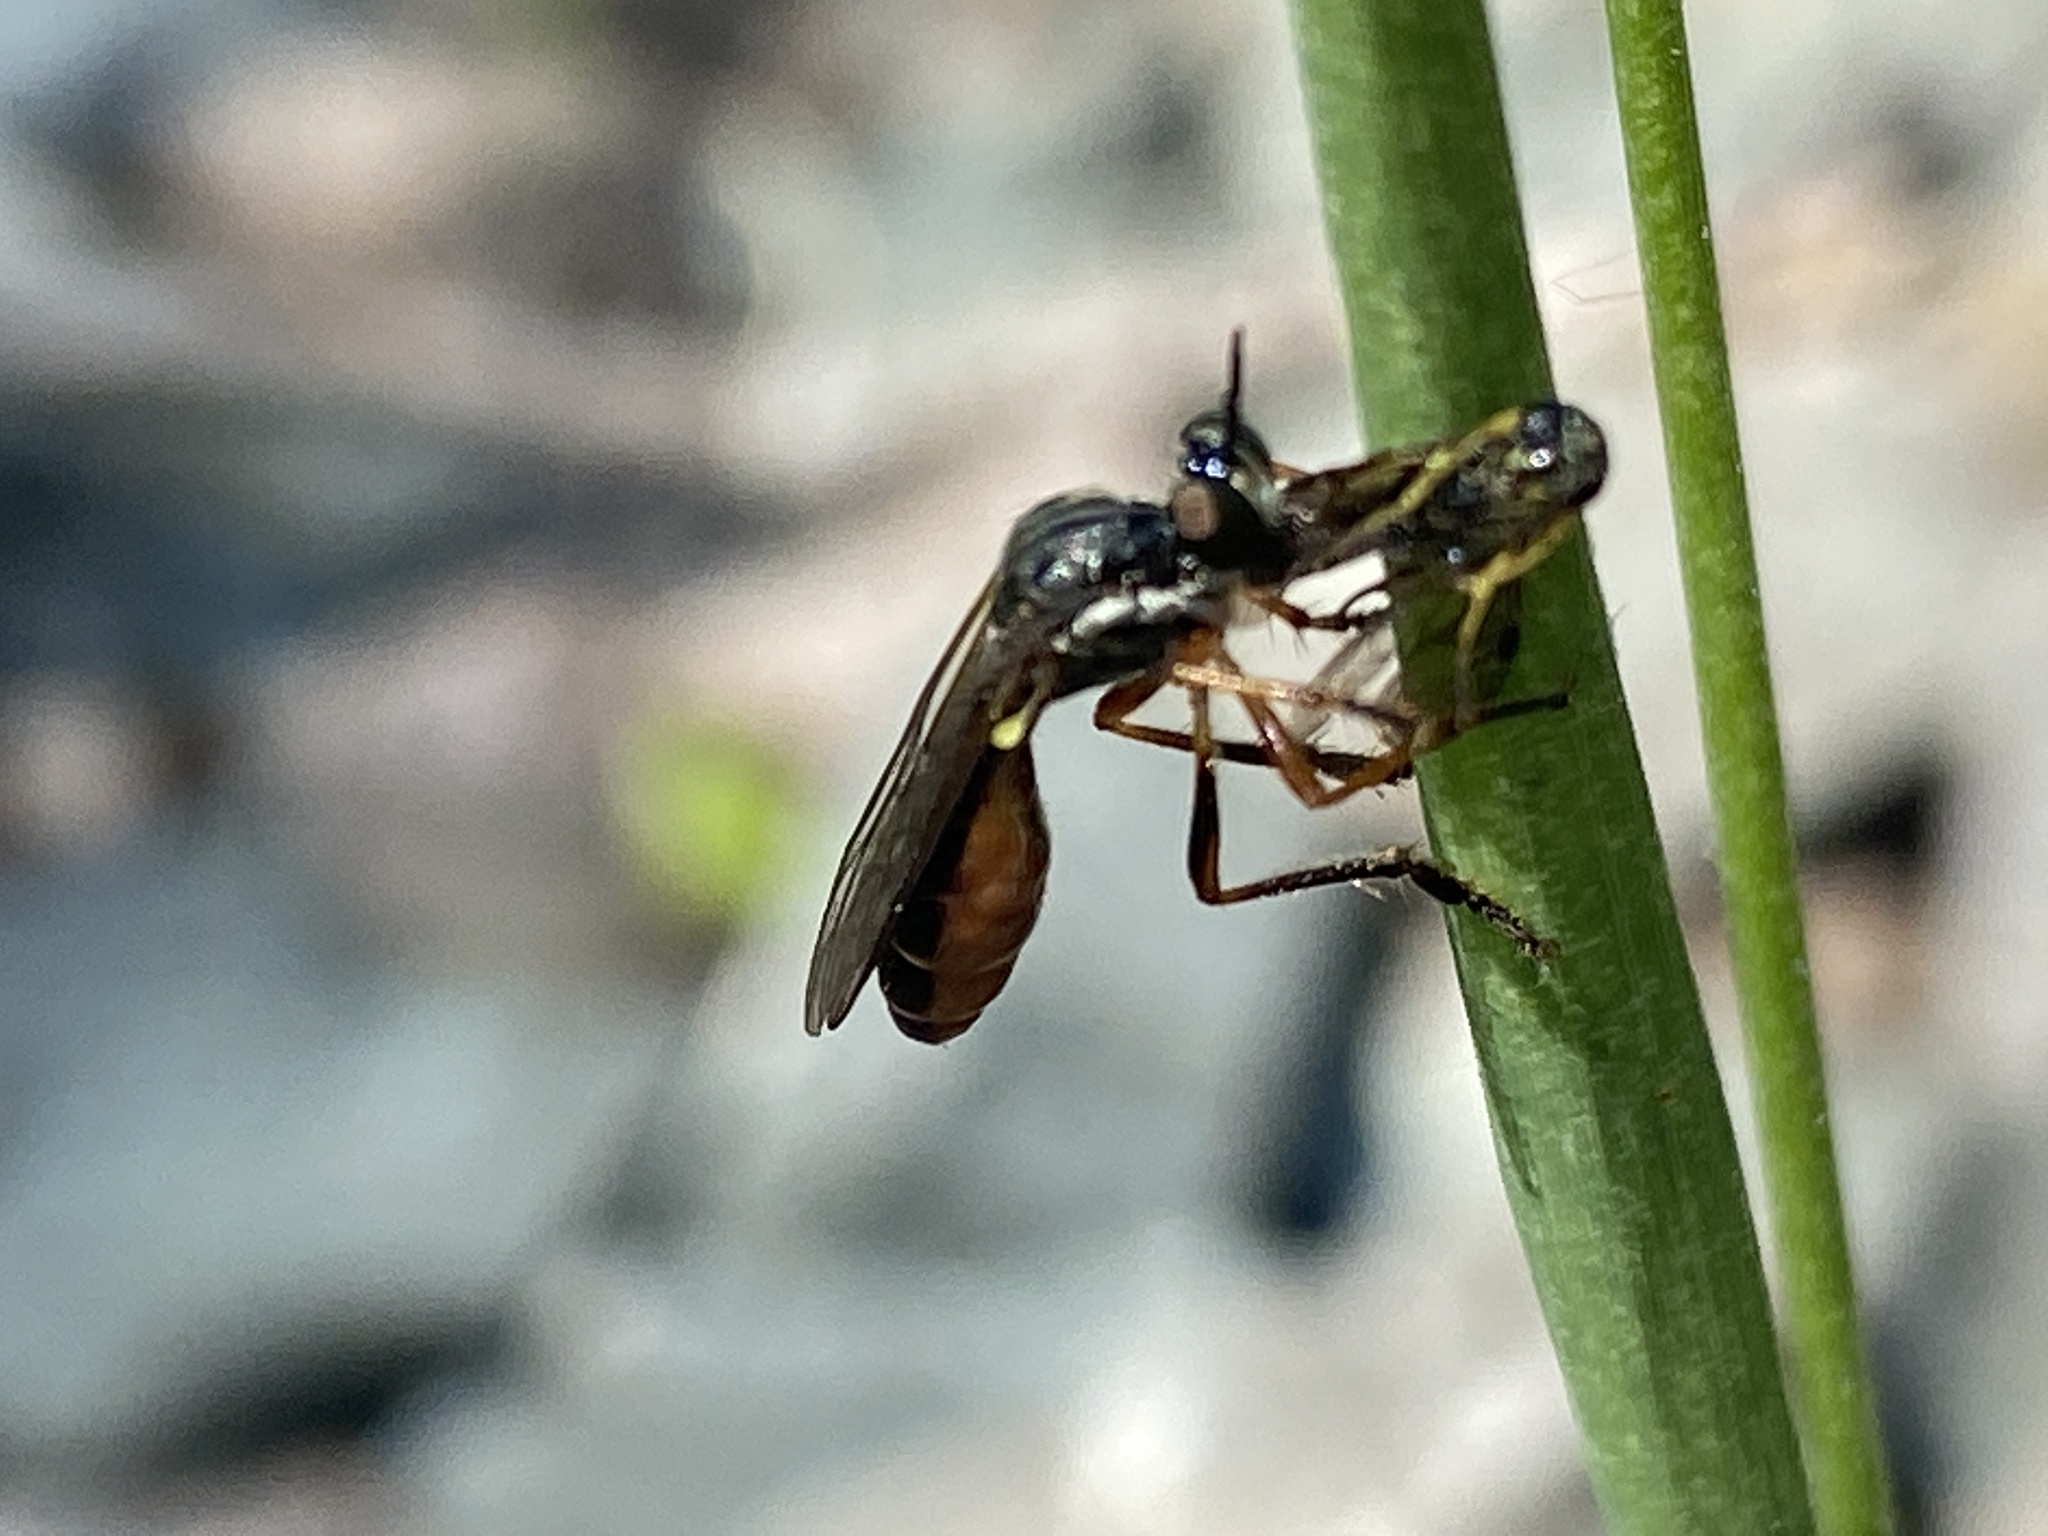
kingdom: Animalia
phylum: Arthropoda
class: Insecta
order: Diptera
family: Asilidae
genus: Dioctria
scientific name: Dioctria hyalipennis
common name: Stripe-legged robberfly
